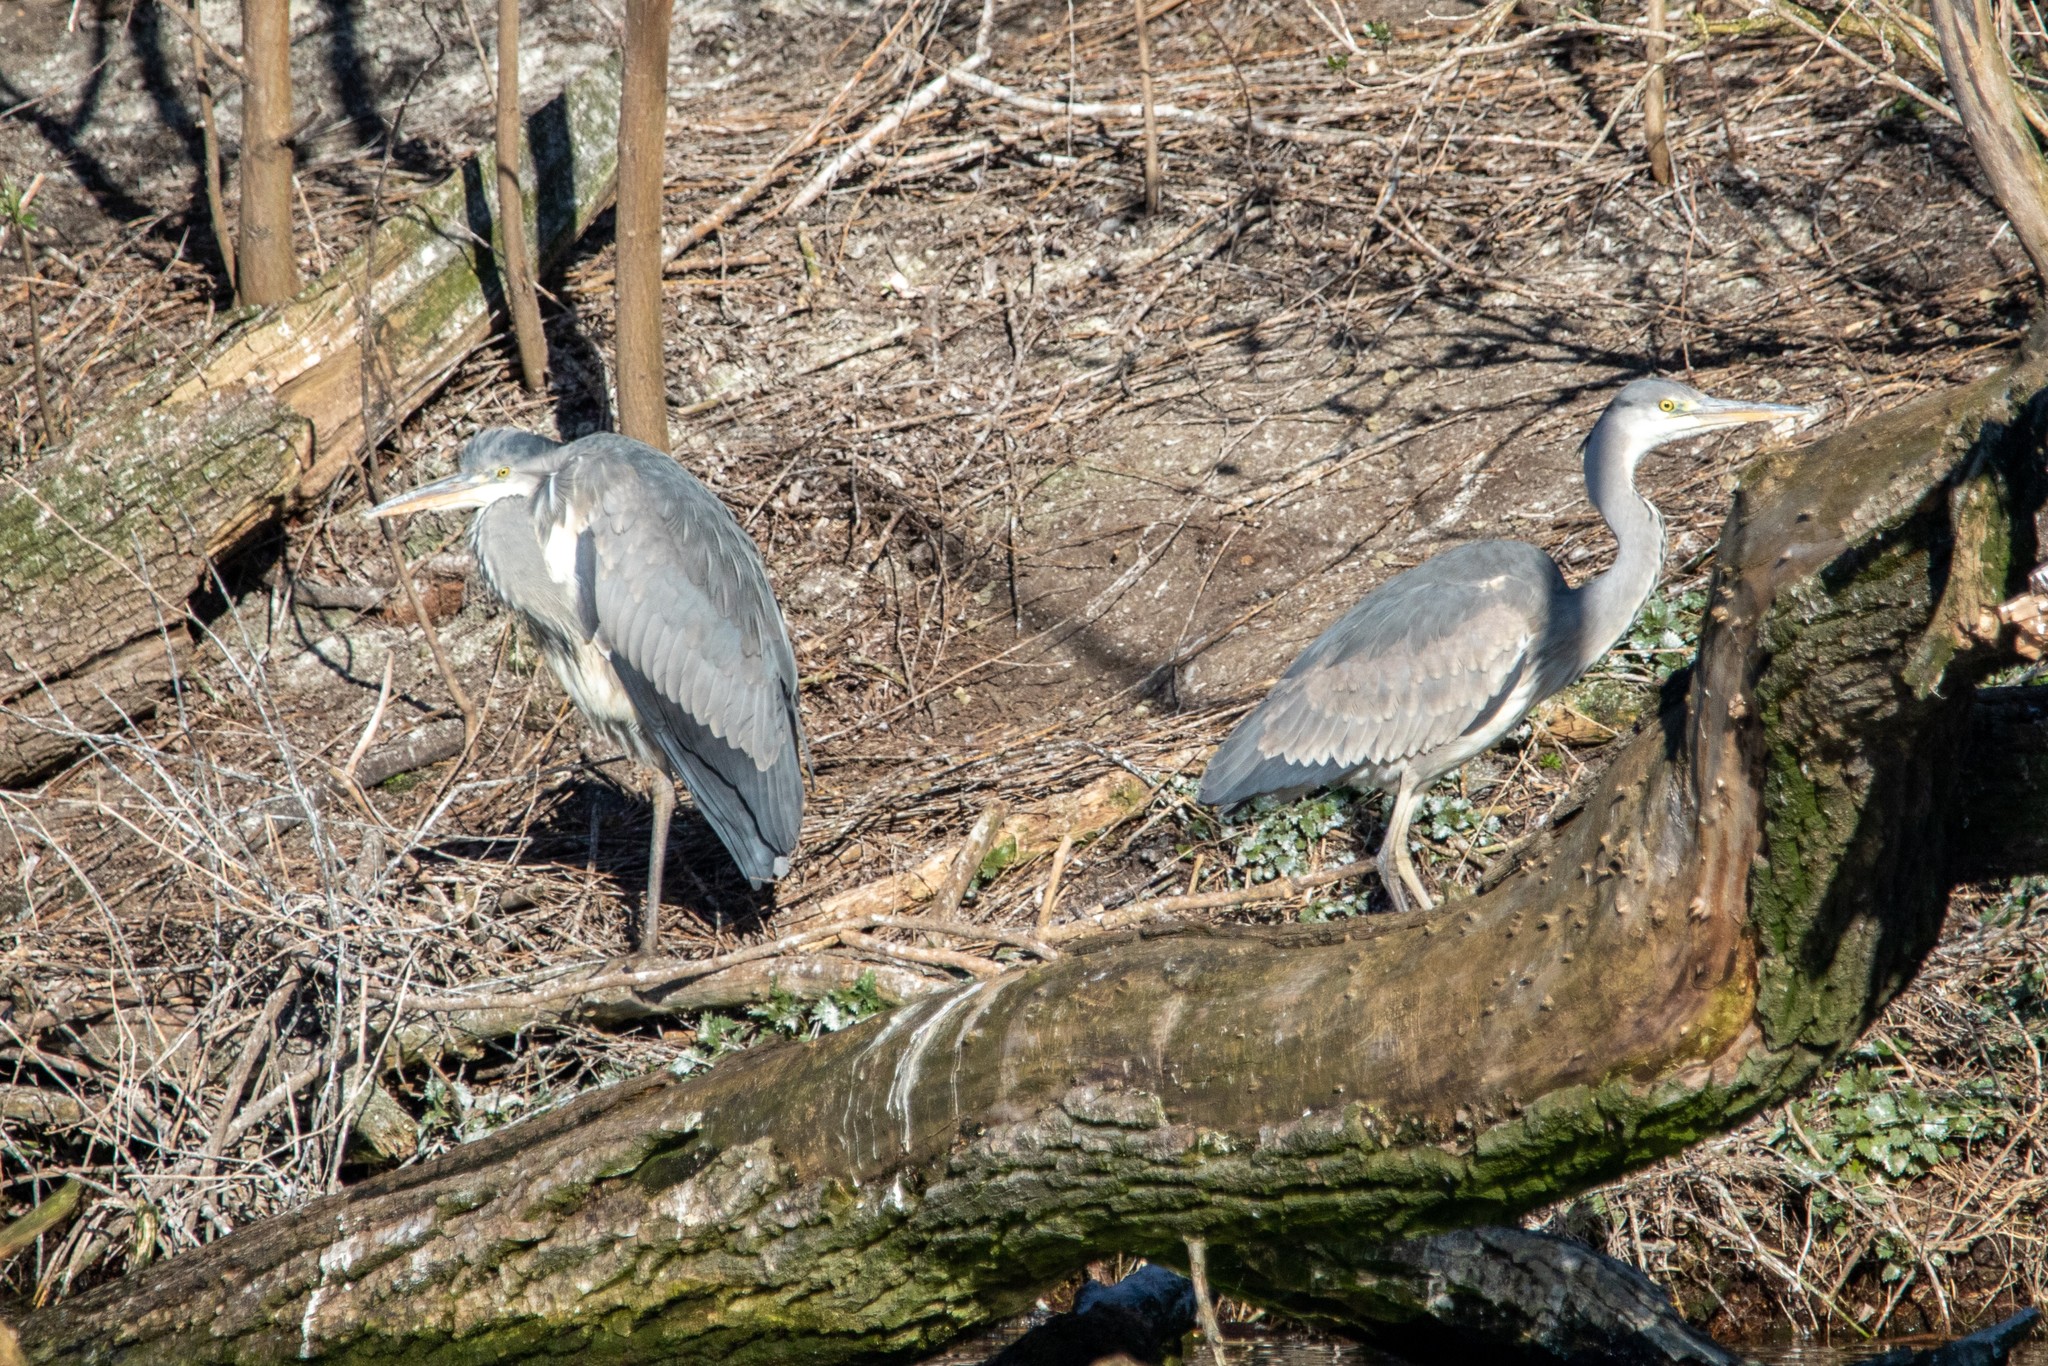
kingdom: Animalia
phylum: Chordata
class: Aves
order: Pelecaniformes
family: Ardeidae
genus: Ardea
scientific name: Ardea cinerea
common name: Grey heron
